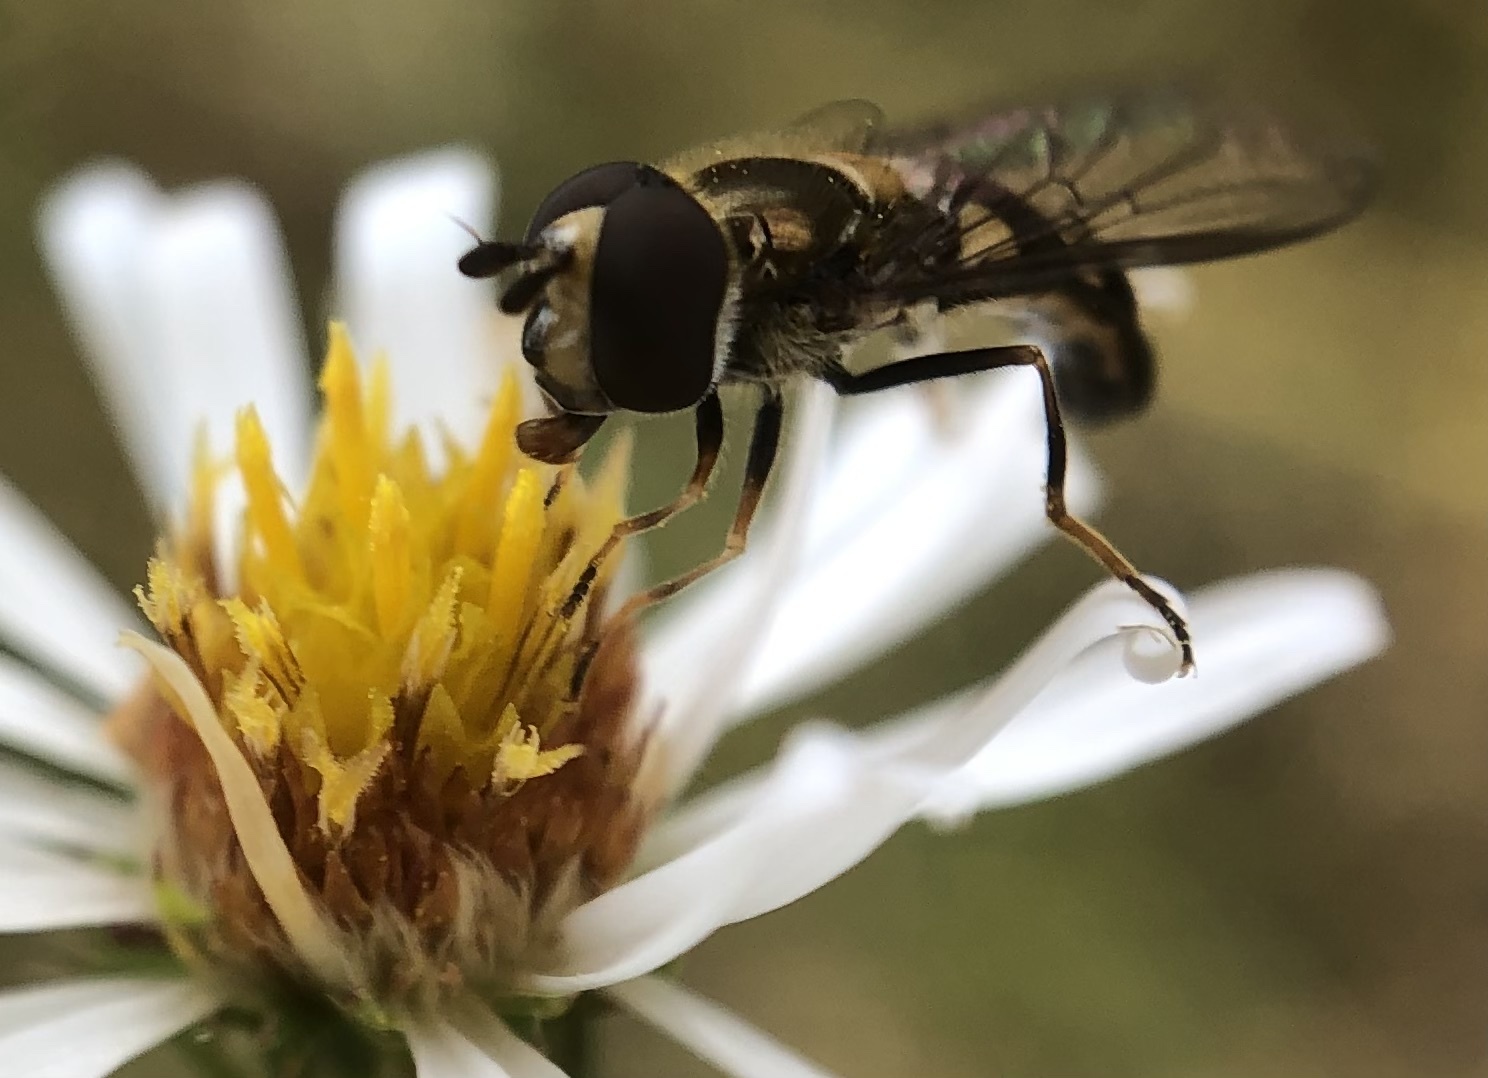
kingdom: Animalia
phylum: Arthropoda
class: Insecta
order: Diptera
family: Syrphidae
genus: Eupeodes
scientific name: Eupeodes
